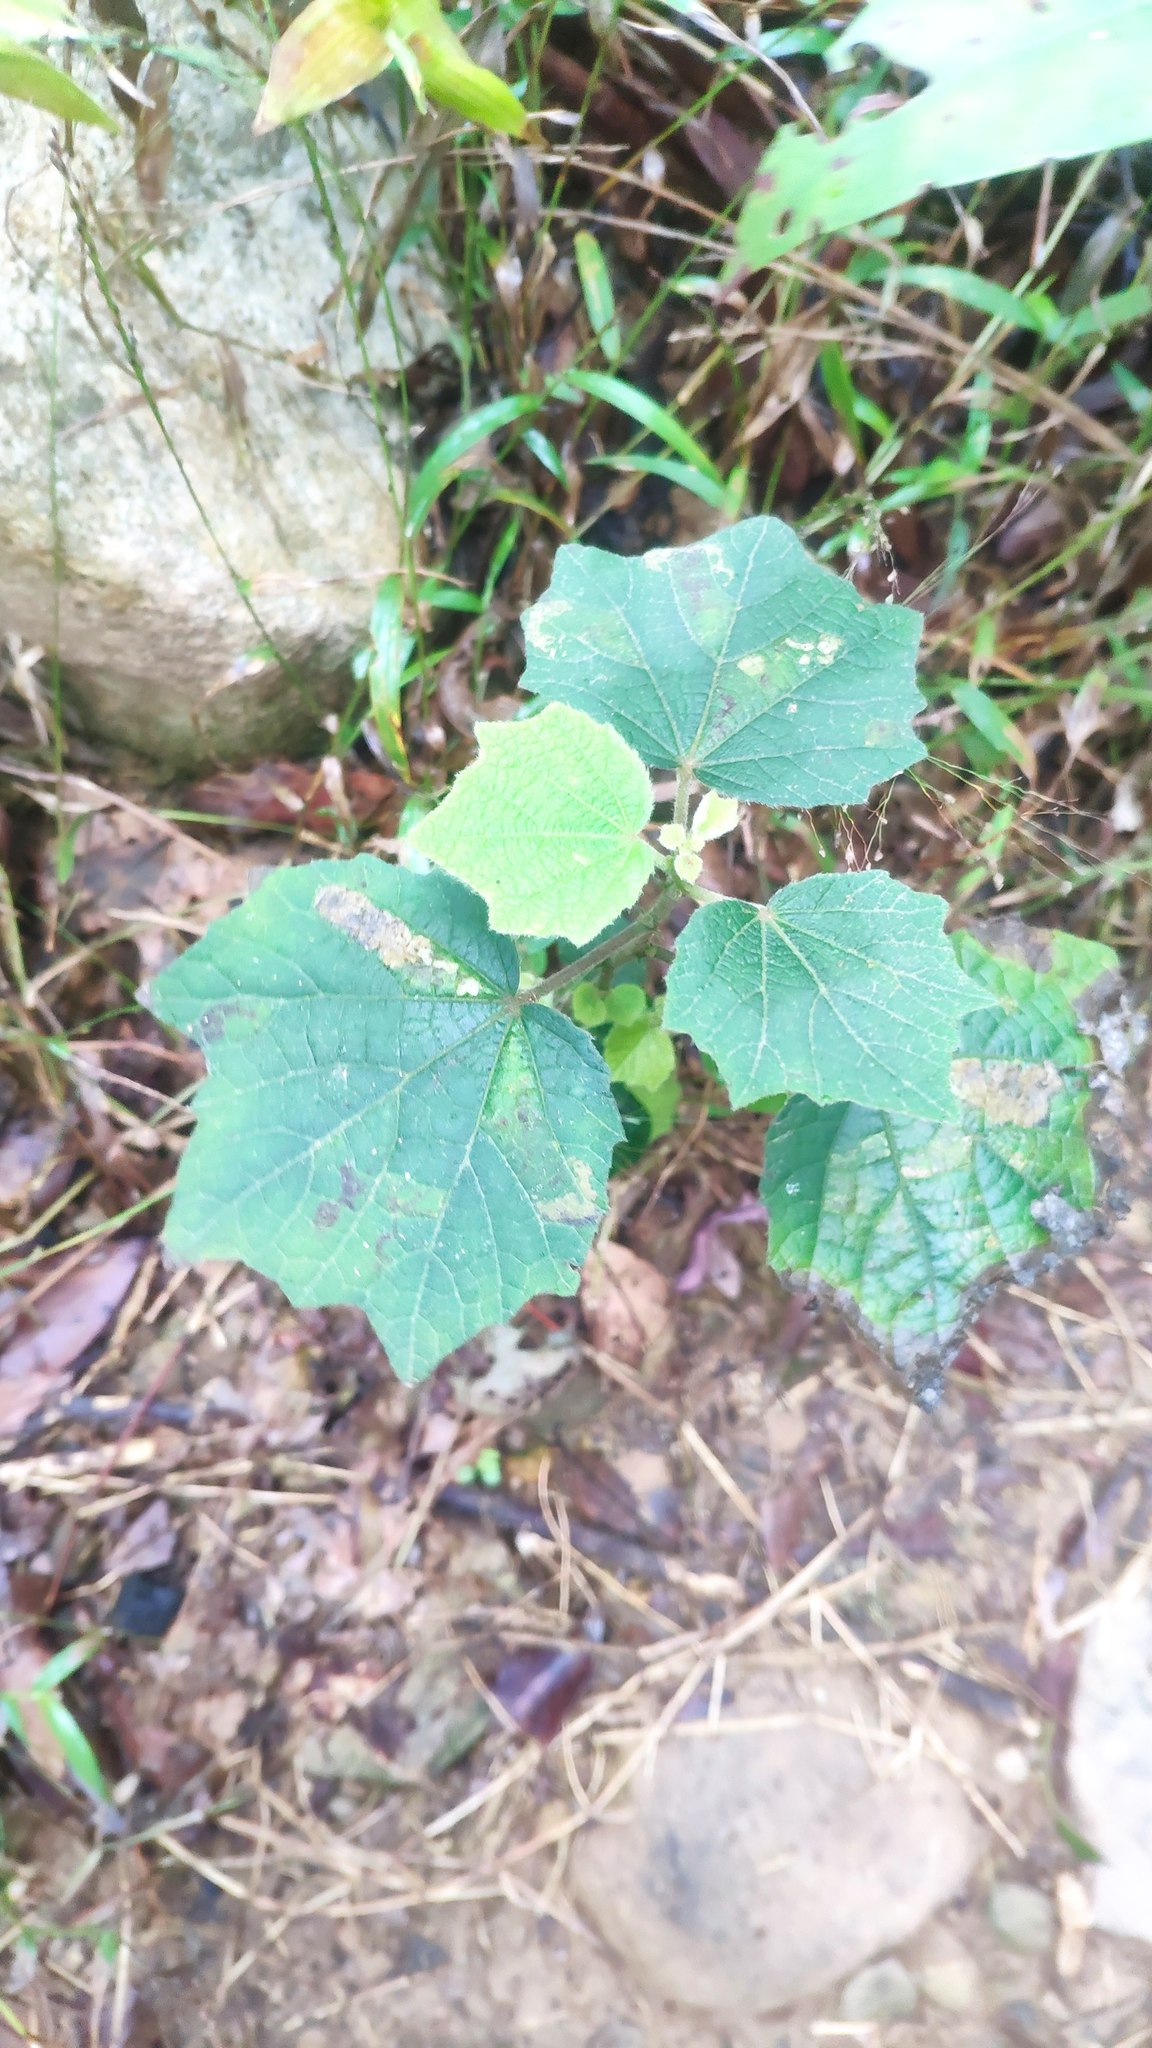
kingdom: Plantae
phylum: Tracheophyta
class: Magnoliopsida
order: Malvales
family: Malvaceae
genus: Urena
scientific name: Urena lobata
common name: Caesarweed
